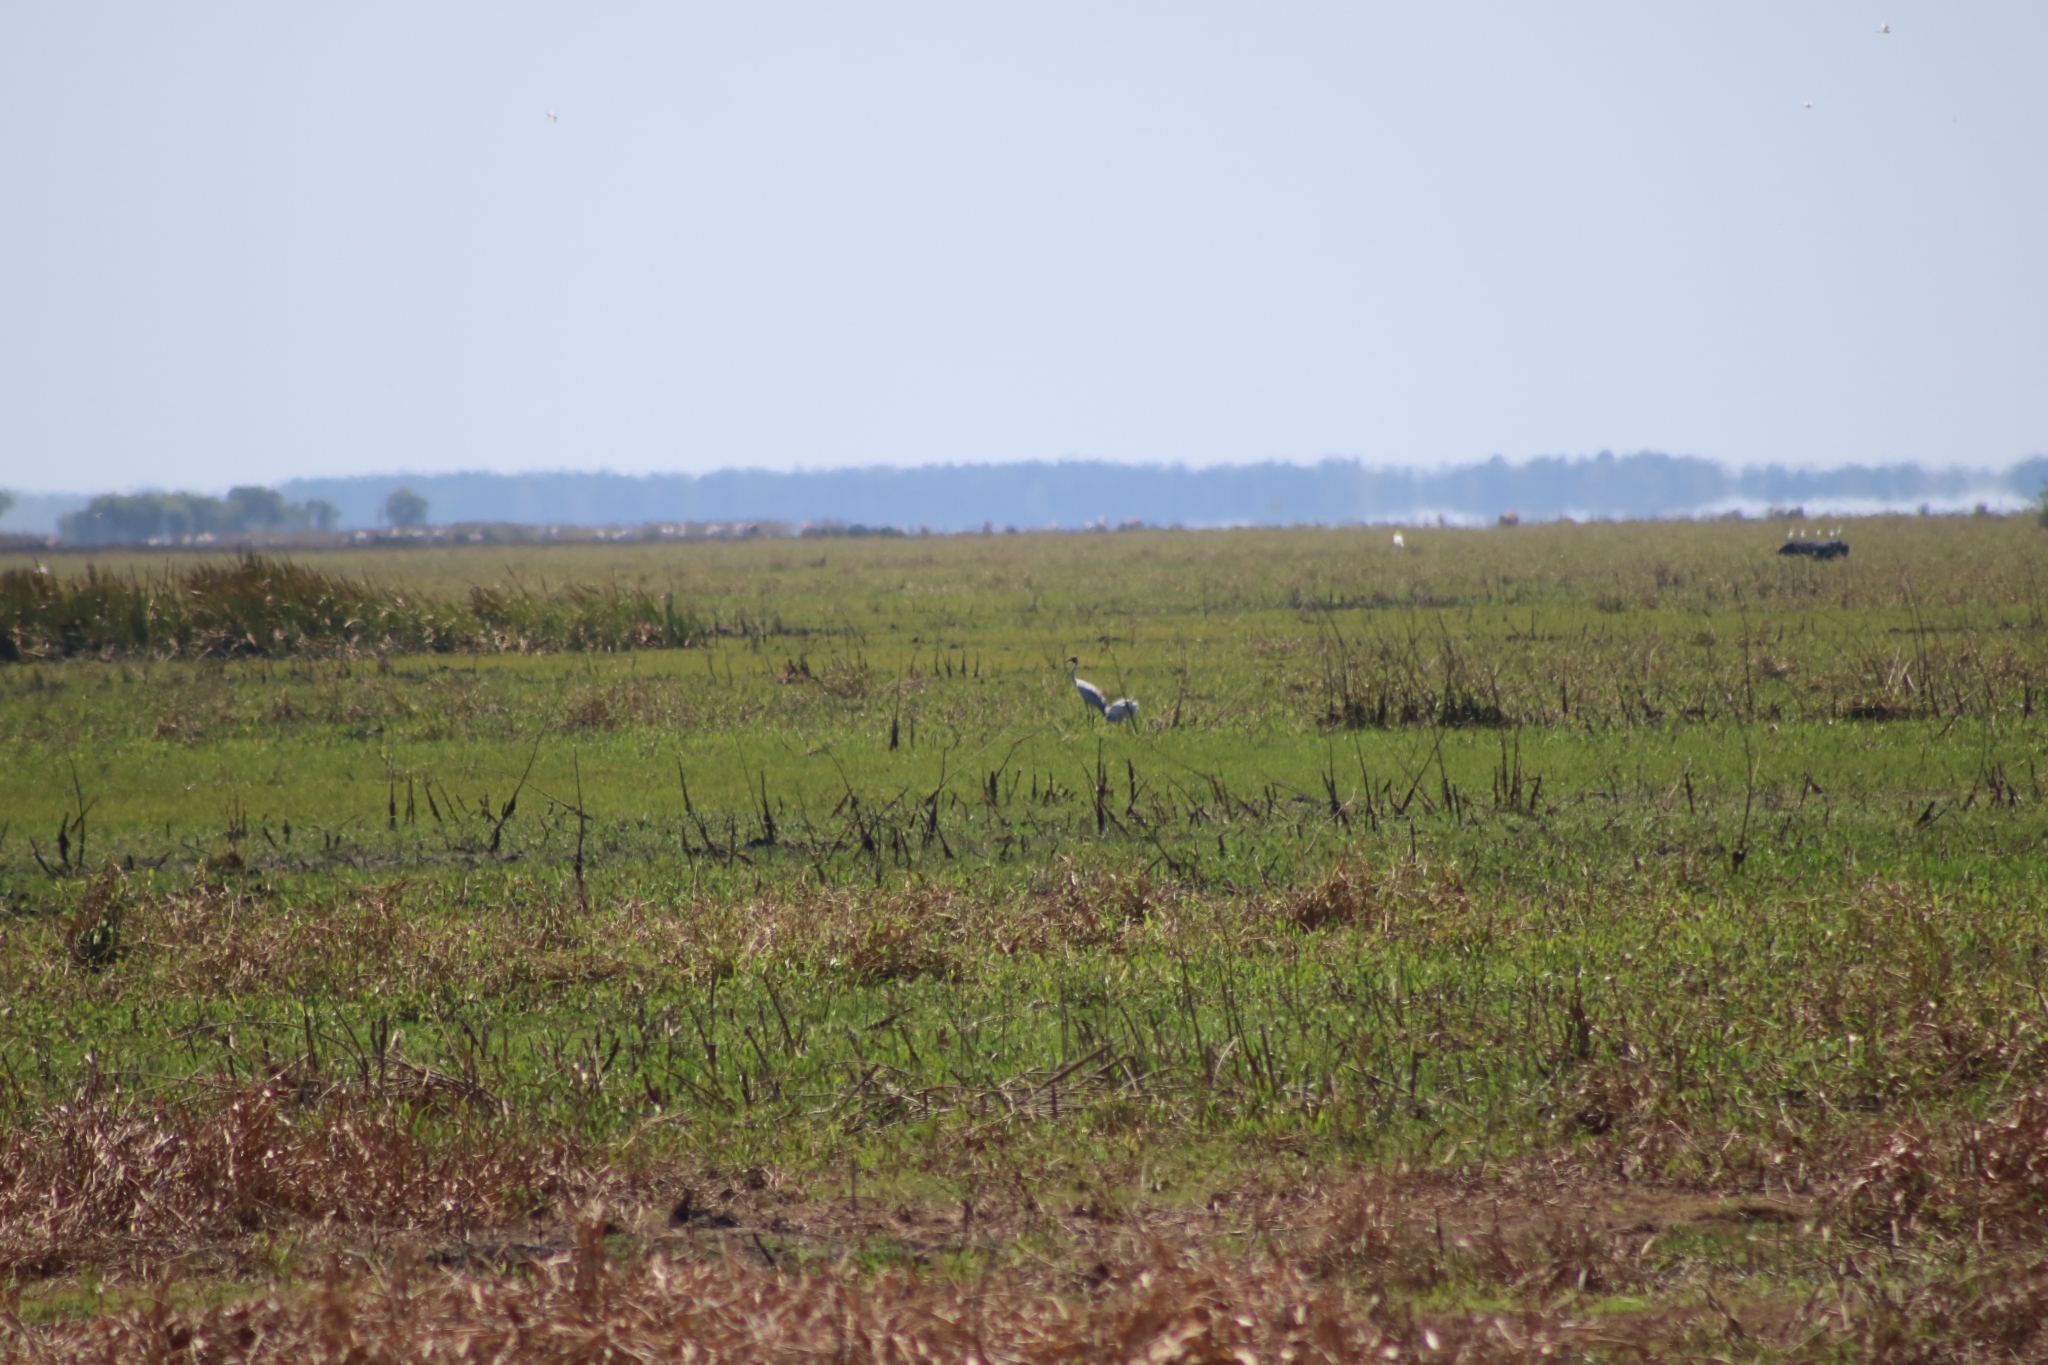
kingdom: Animalia
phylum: Chordata
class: Aves
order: Gruiformes
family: Gruidae
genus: Grus
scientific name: Grus rubicunda
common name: Brolga
